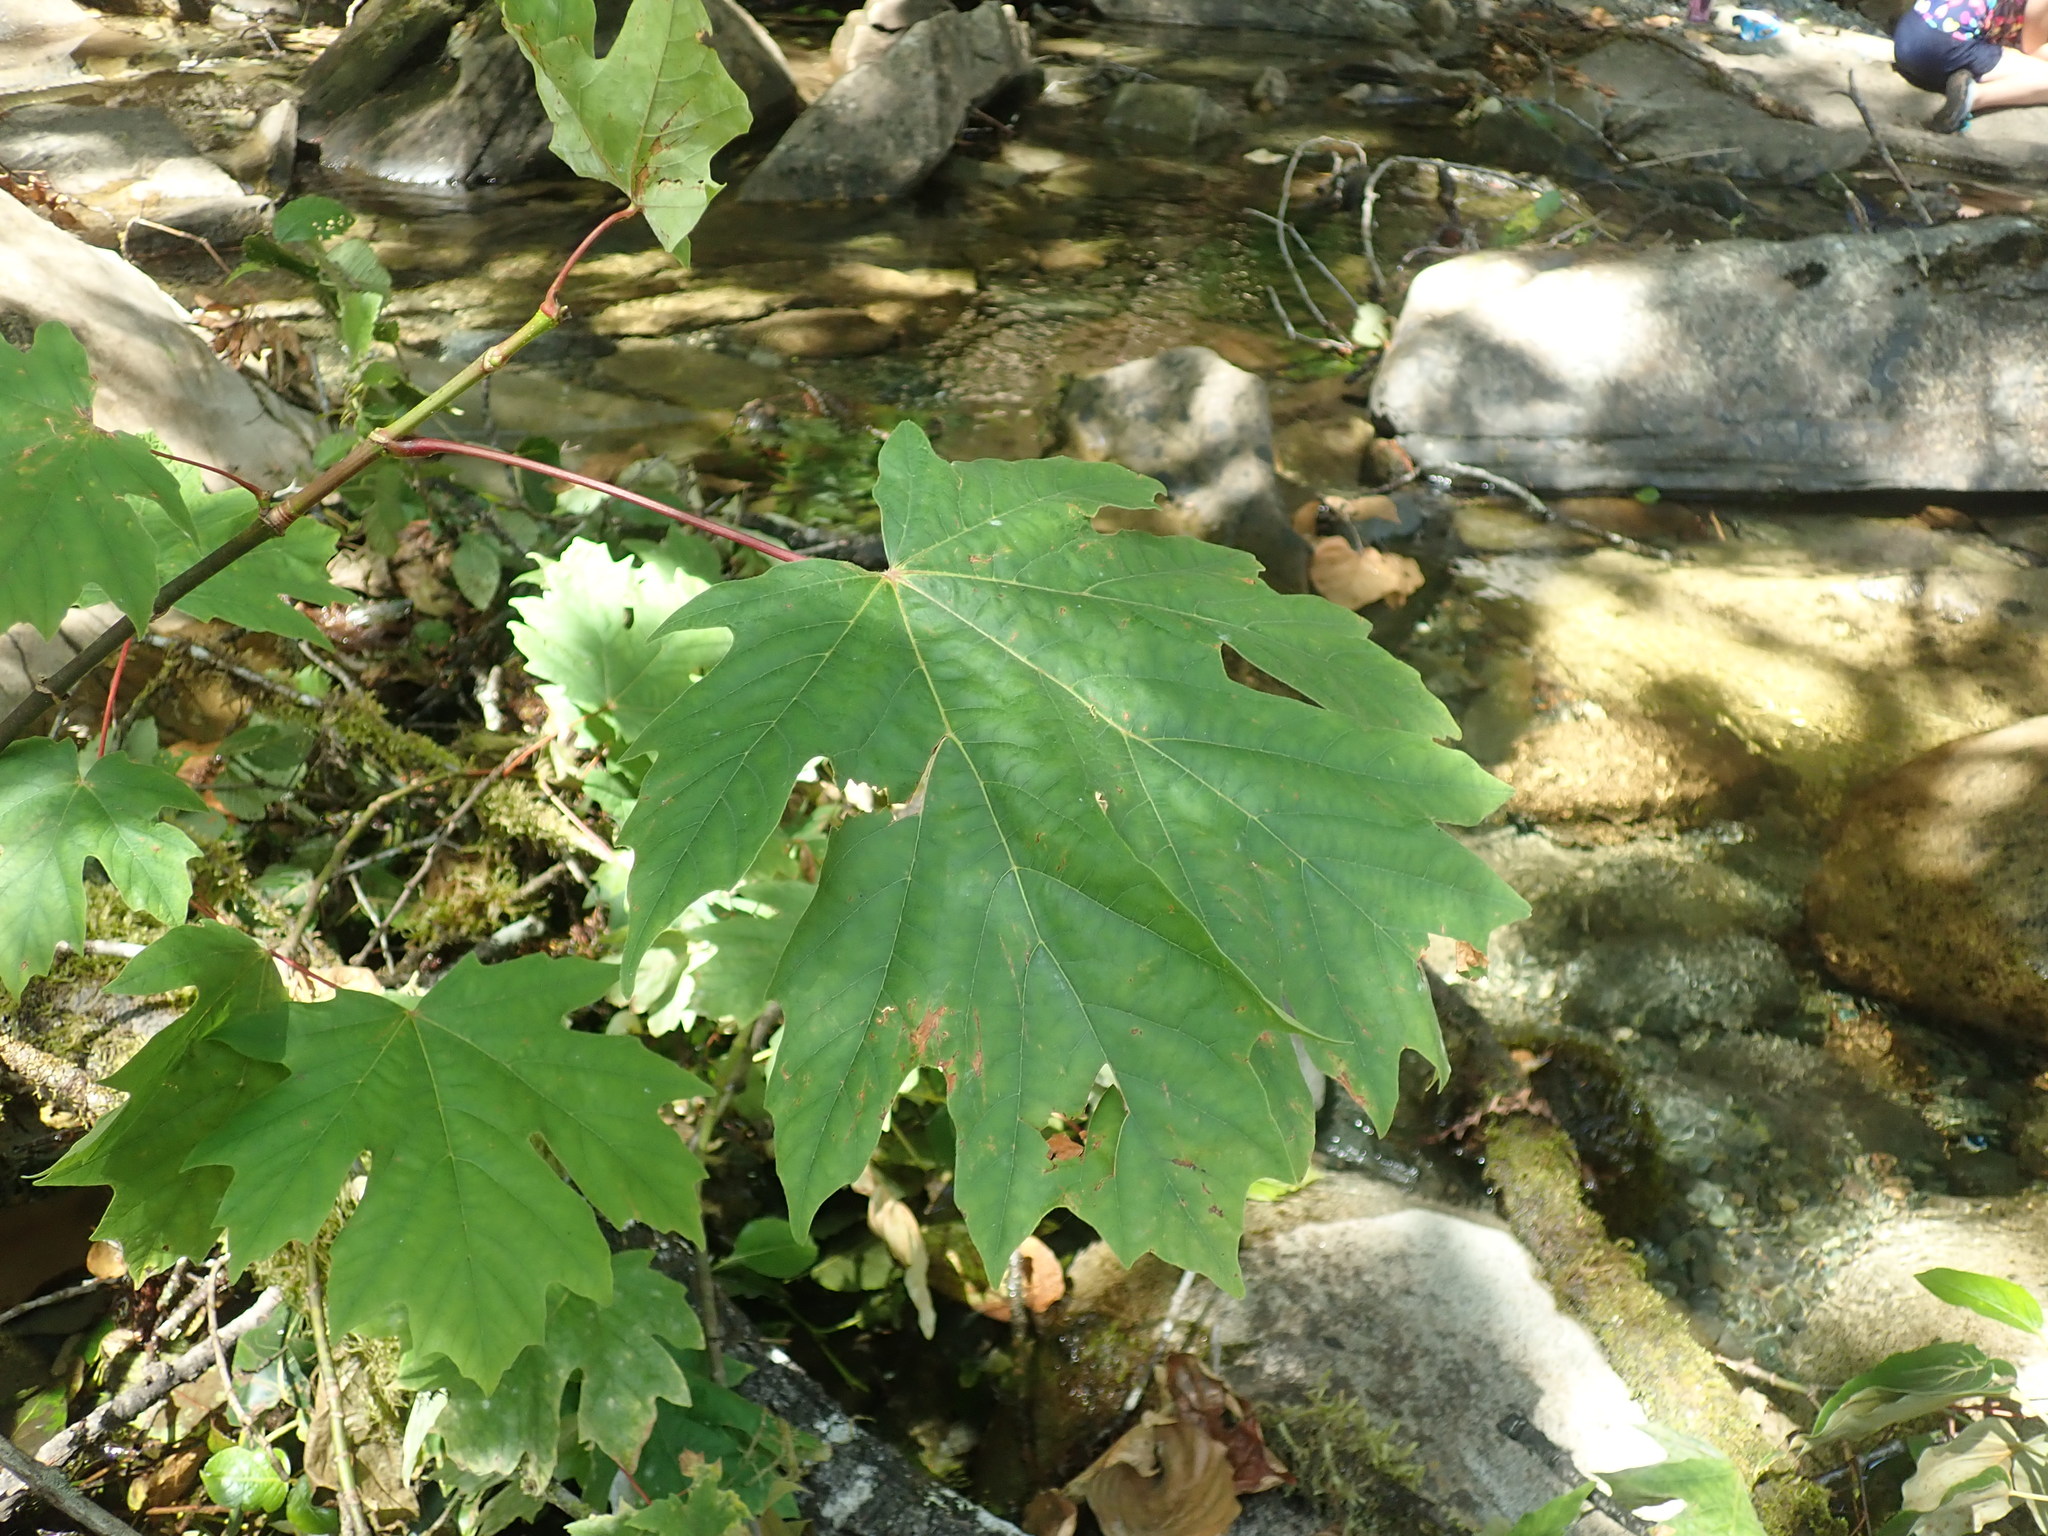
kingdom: Plantae
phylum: Tracheophyta
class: Magnoliopsida
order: Sapindales
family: Sapindaceae
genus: Acer
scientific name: Acer macrophyllum
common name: Oregon maple
